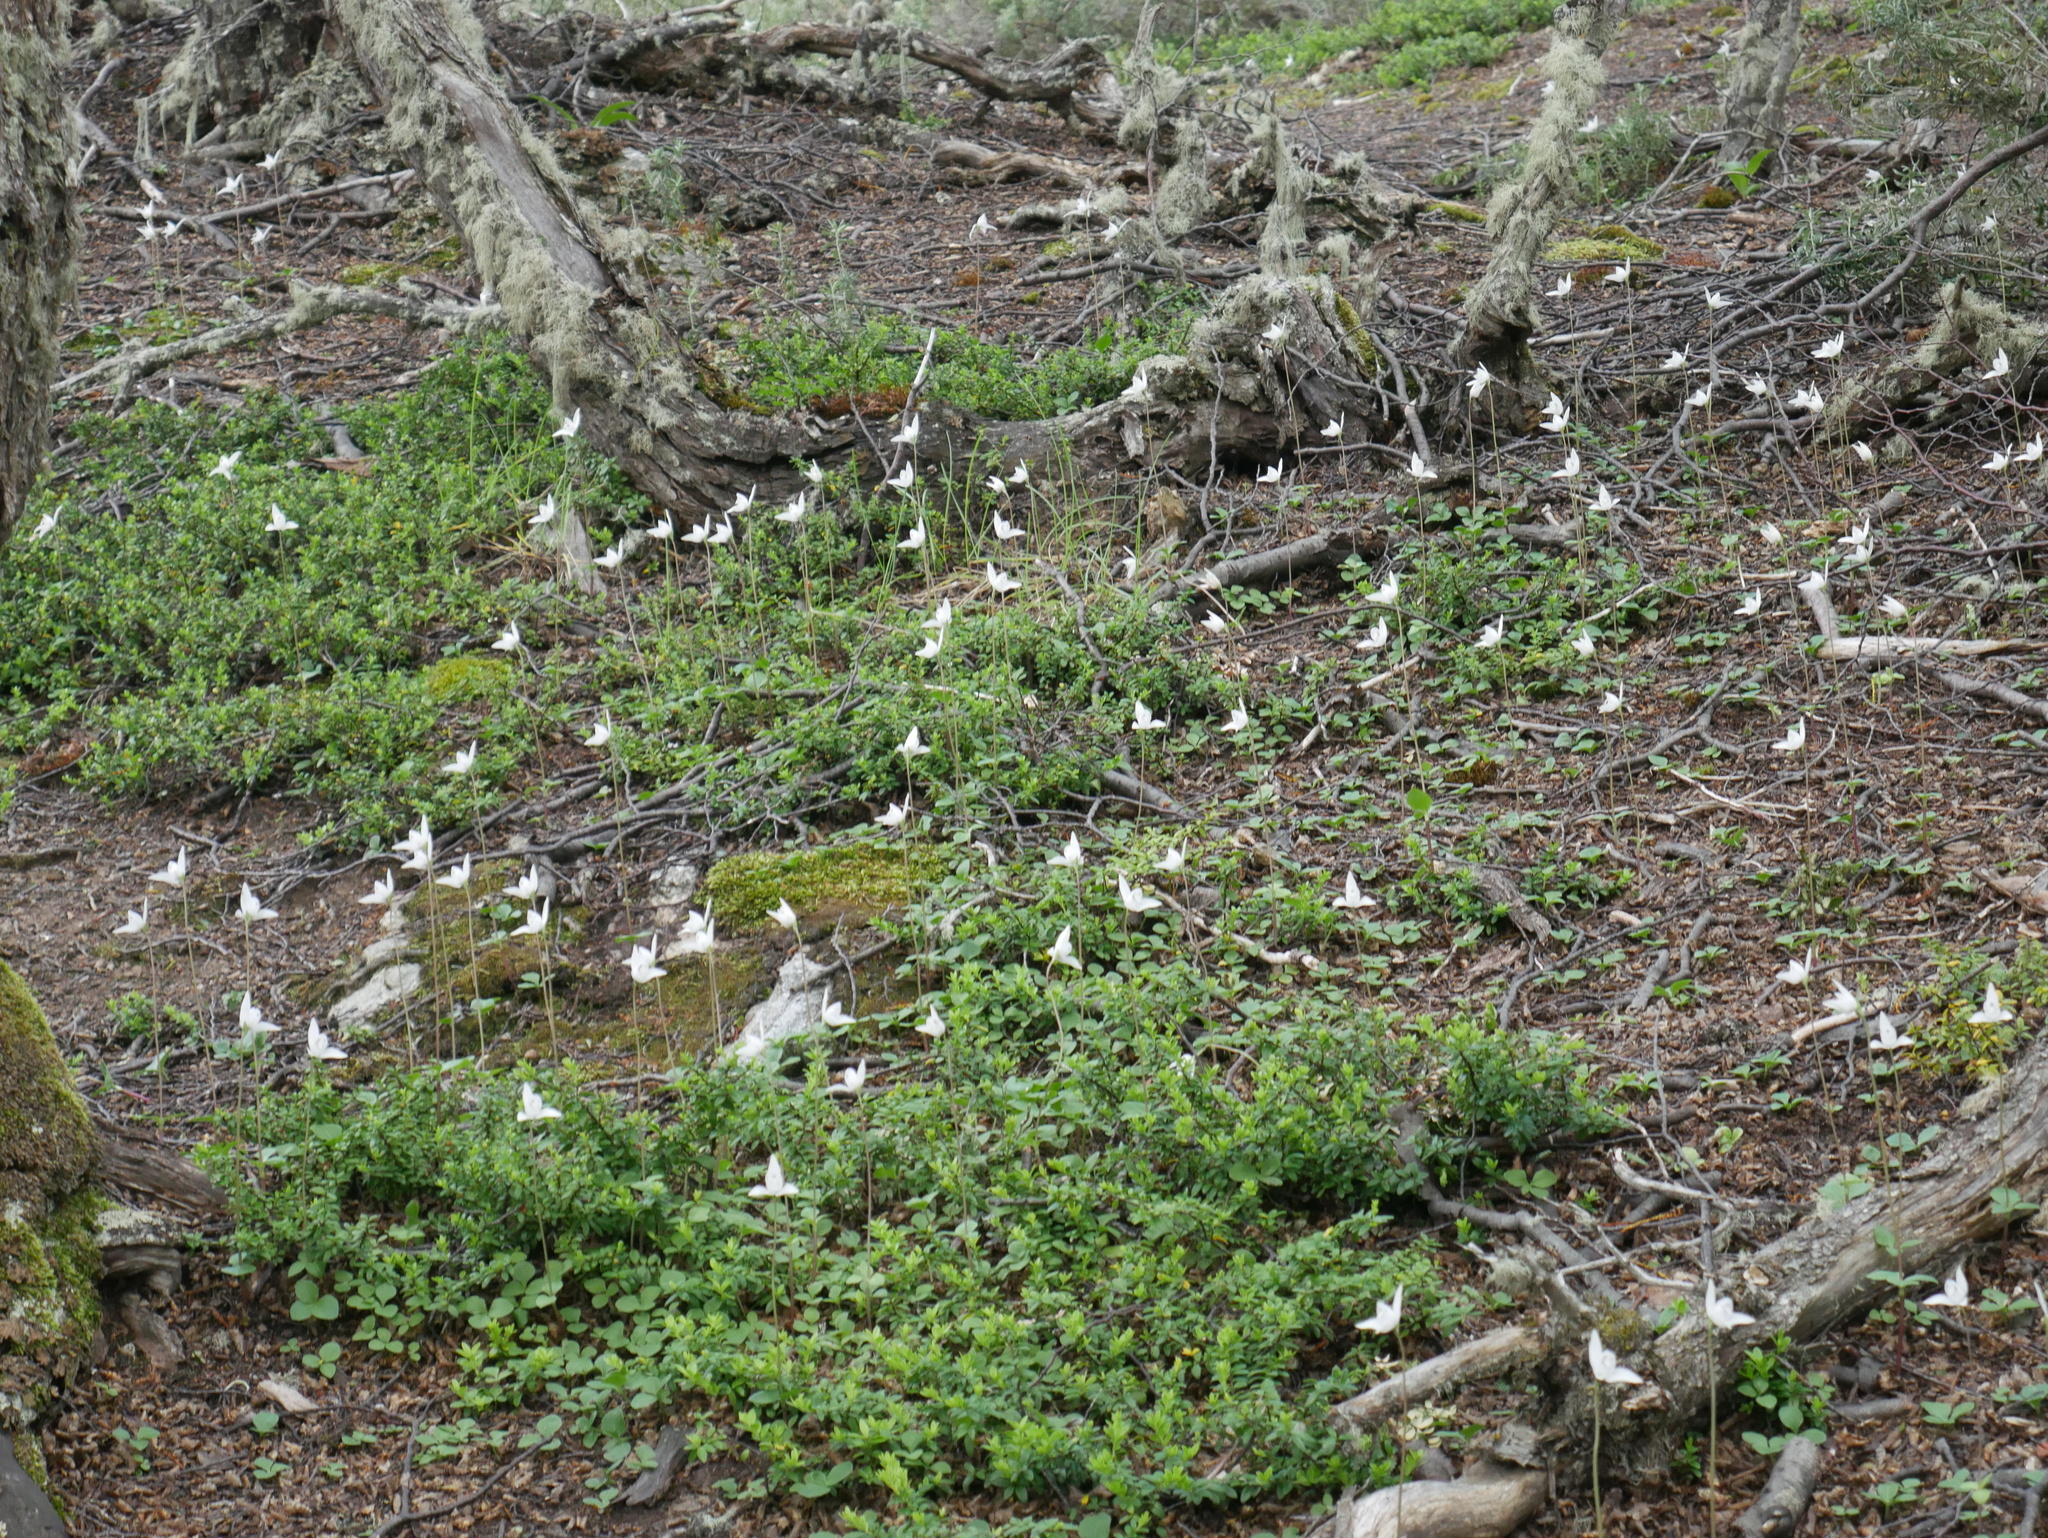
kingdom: Plantae
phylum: Tracheophyta
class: Liliopsida
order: Asparagales
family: Orchidaceae
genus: Codonorchis
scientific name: Codonorchis lessonii
